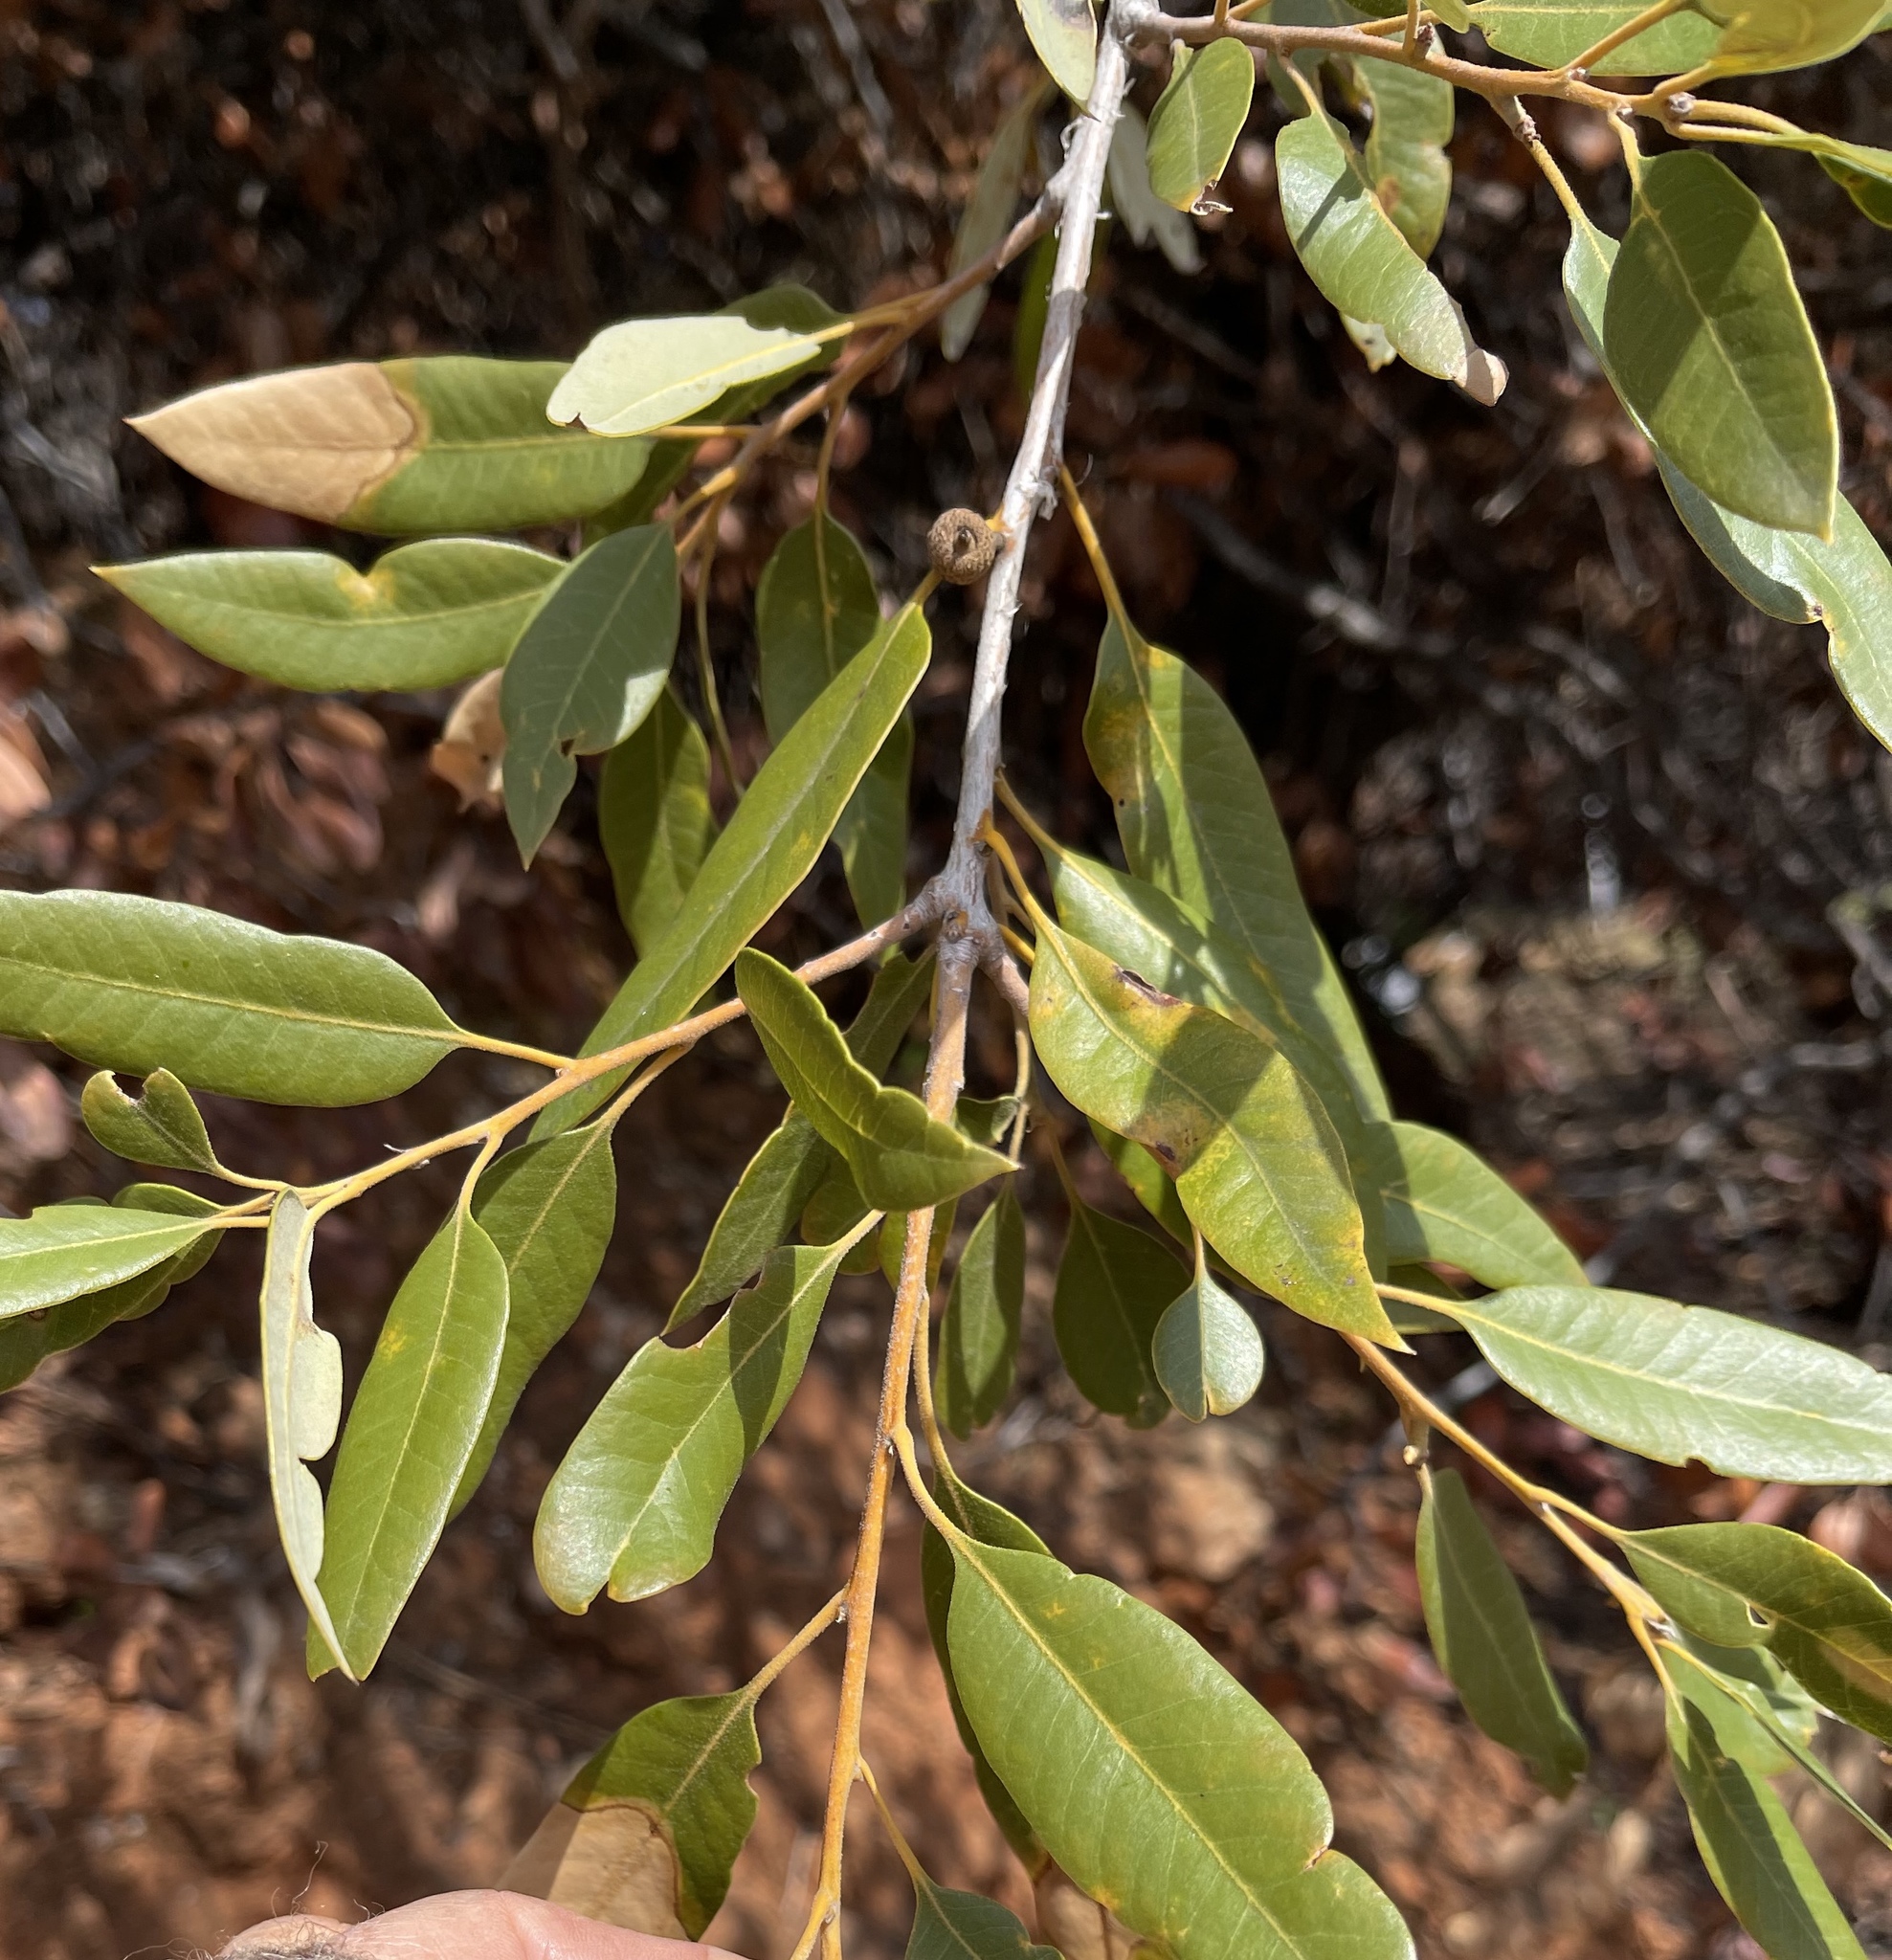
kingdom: Plantae
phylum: Tracheophyta
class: Magnoliopsida
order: Fagales
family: Fagaceae
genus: Quercus
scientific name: Quercus chrysolepis
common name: Canyon live oak
